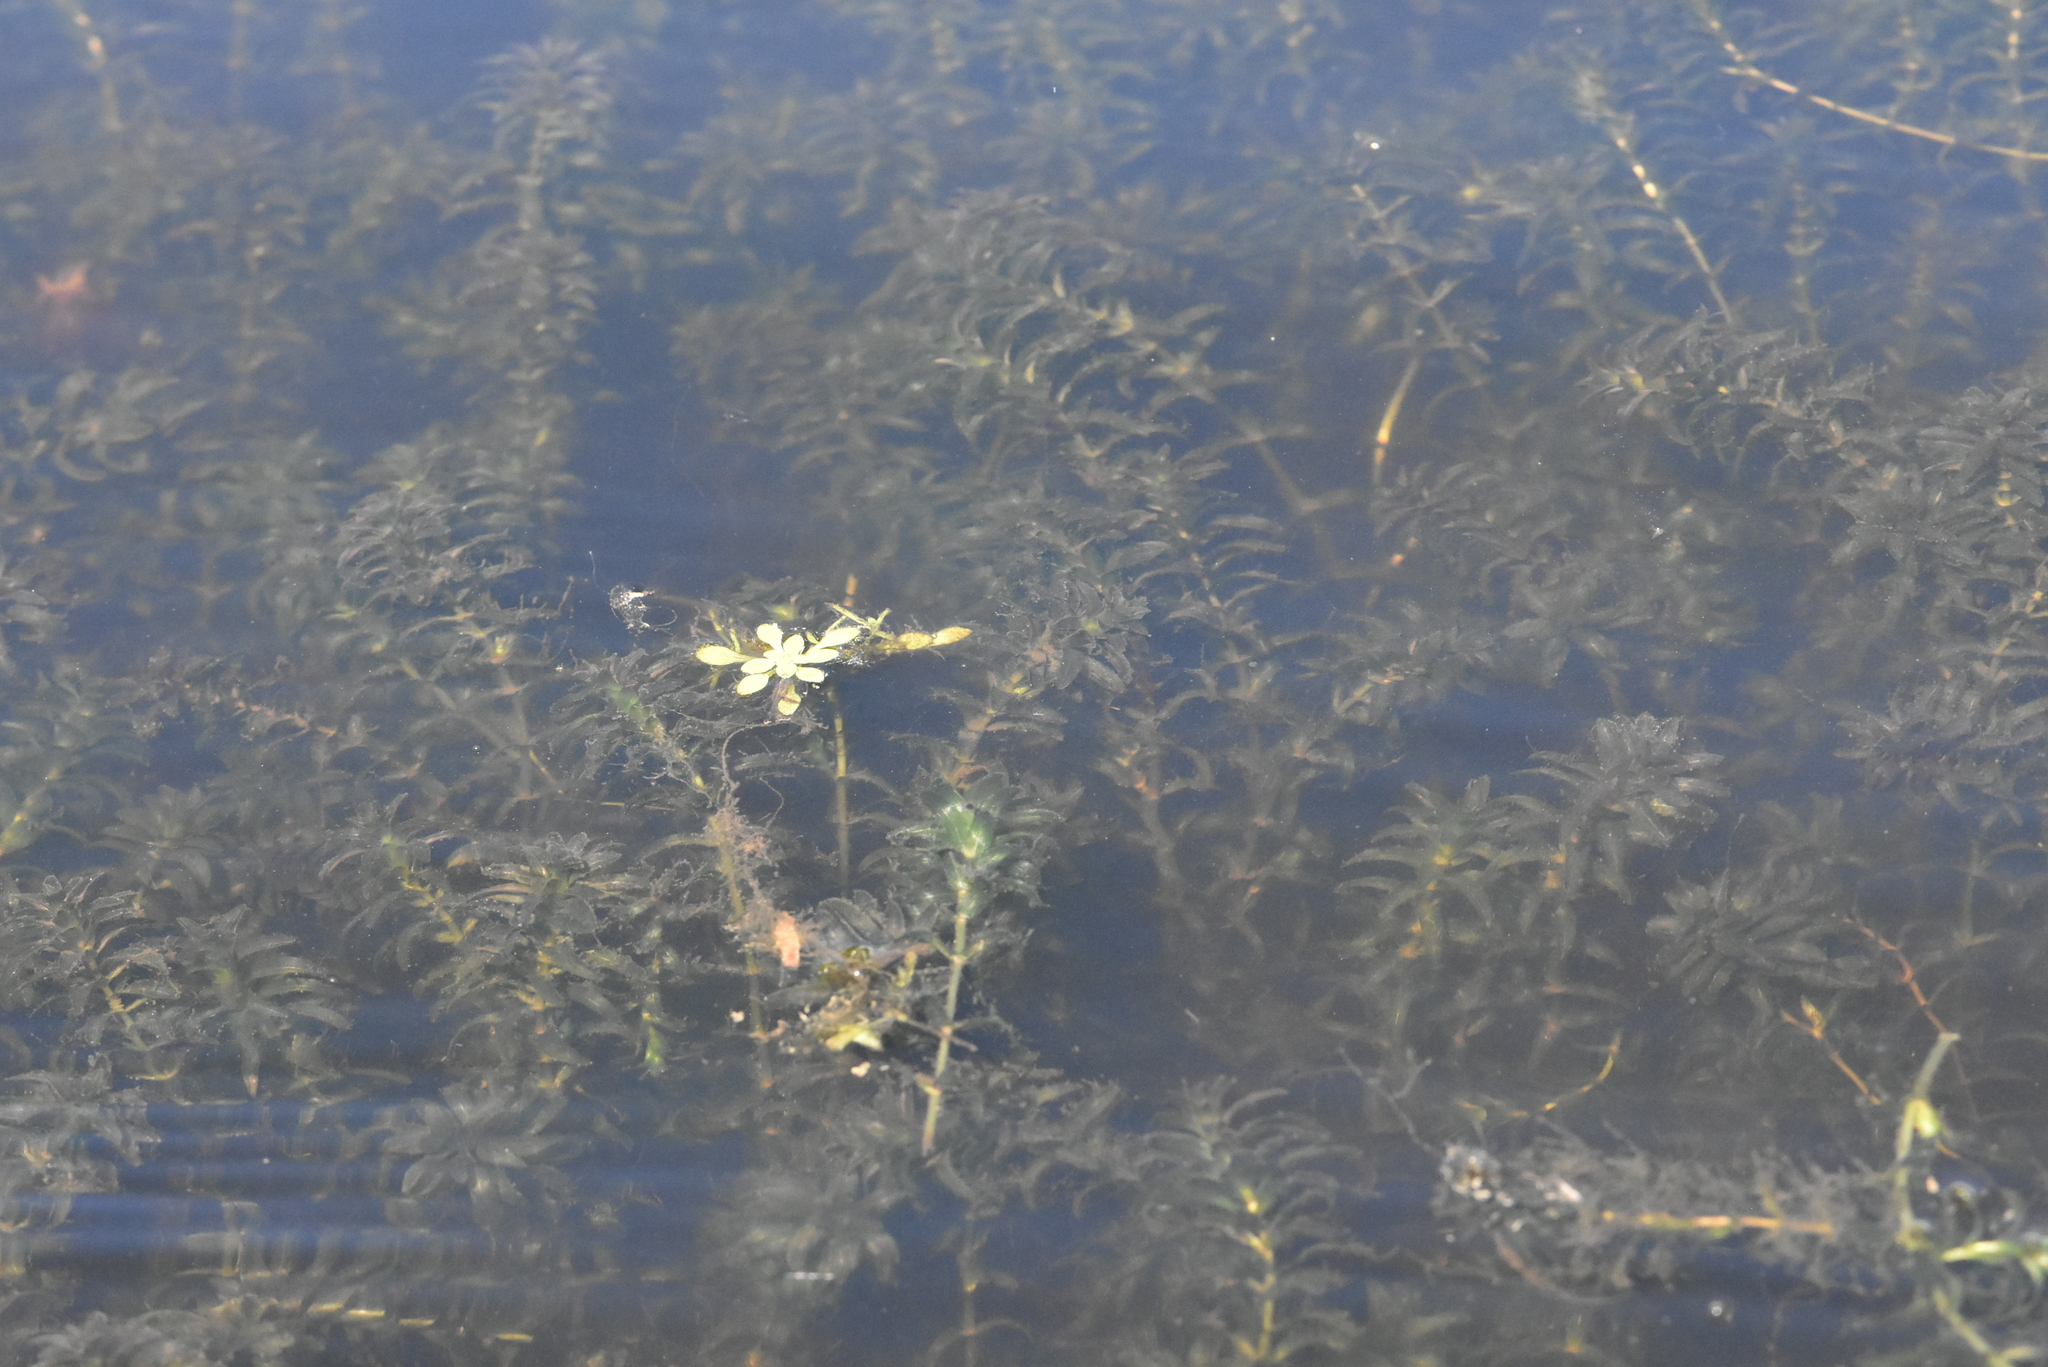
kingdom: Plantae
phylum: Tracheophyta
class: Liliopsida
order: Alismatales
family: Hydrocharitaceae
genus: Elodea
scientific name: Elodea canadensis
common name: Canadian waterweed
